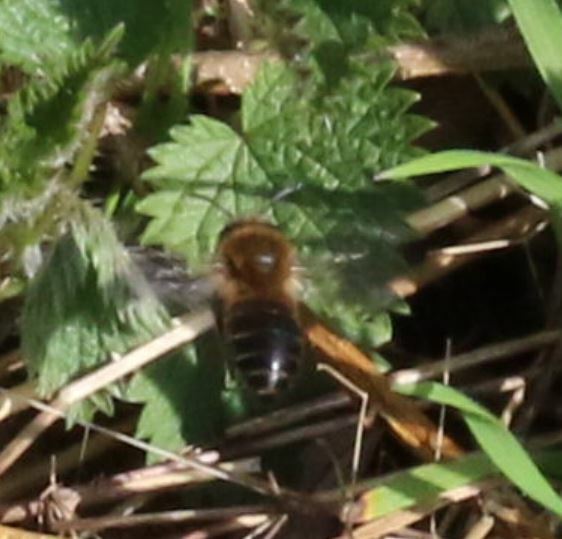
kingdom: Animalia
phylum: Arthropoda
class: Insecta
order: Hymenoptera
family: Colletidae
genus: Colletes
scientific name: Colletes cunicularius
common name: Early colletes
